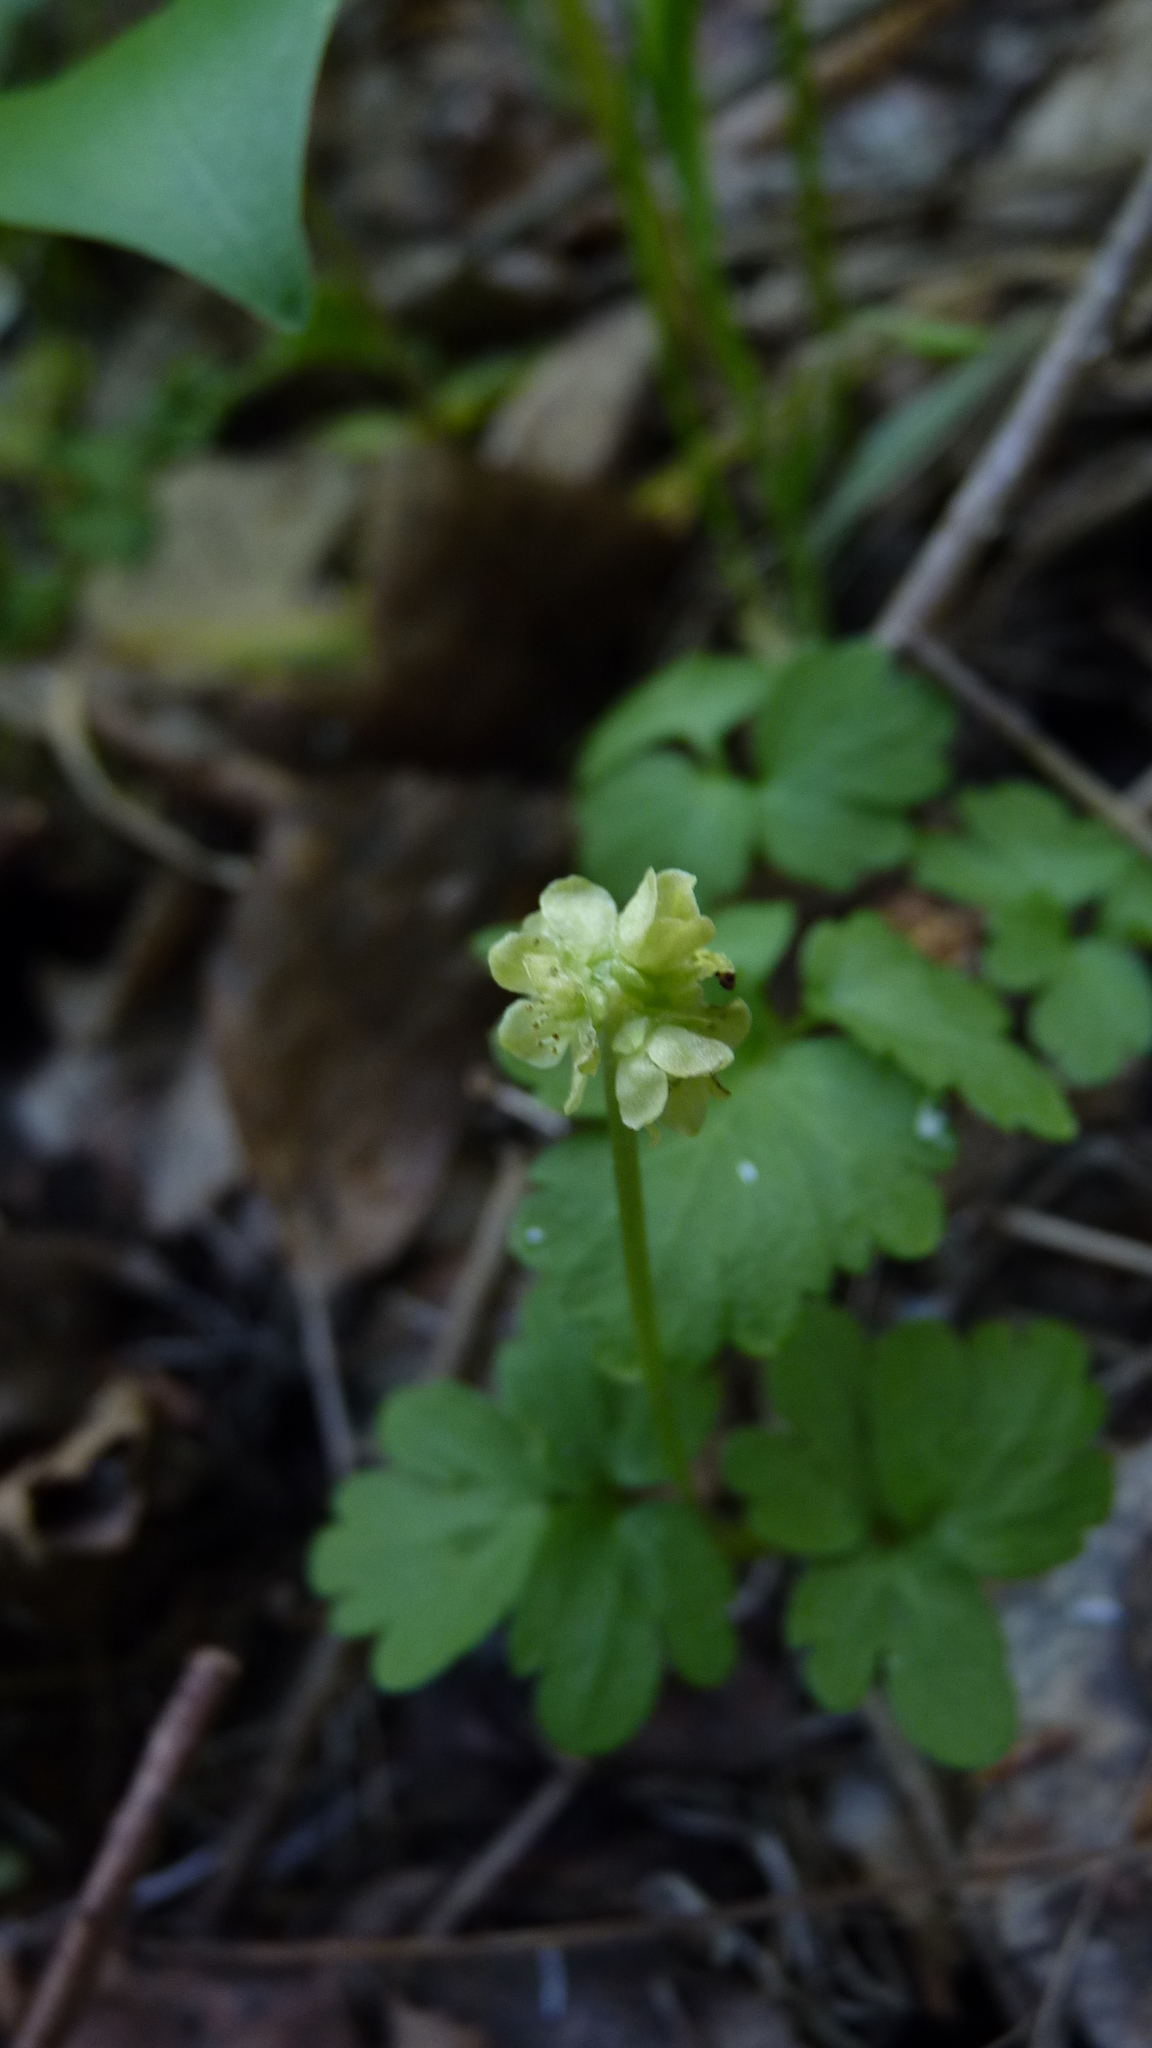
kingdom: Plantae
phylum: Tracheophyta
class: Magnoliopsida
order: Dipsacales
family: Viburnaceae
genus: Adoxa
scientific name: Adoxa moschatellina
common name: Moschatel
